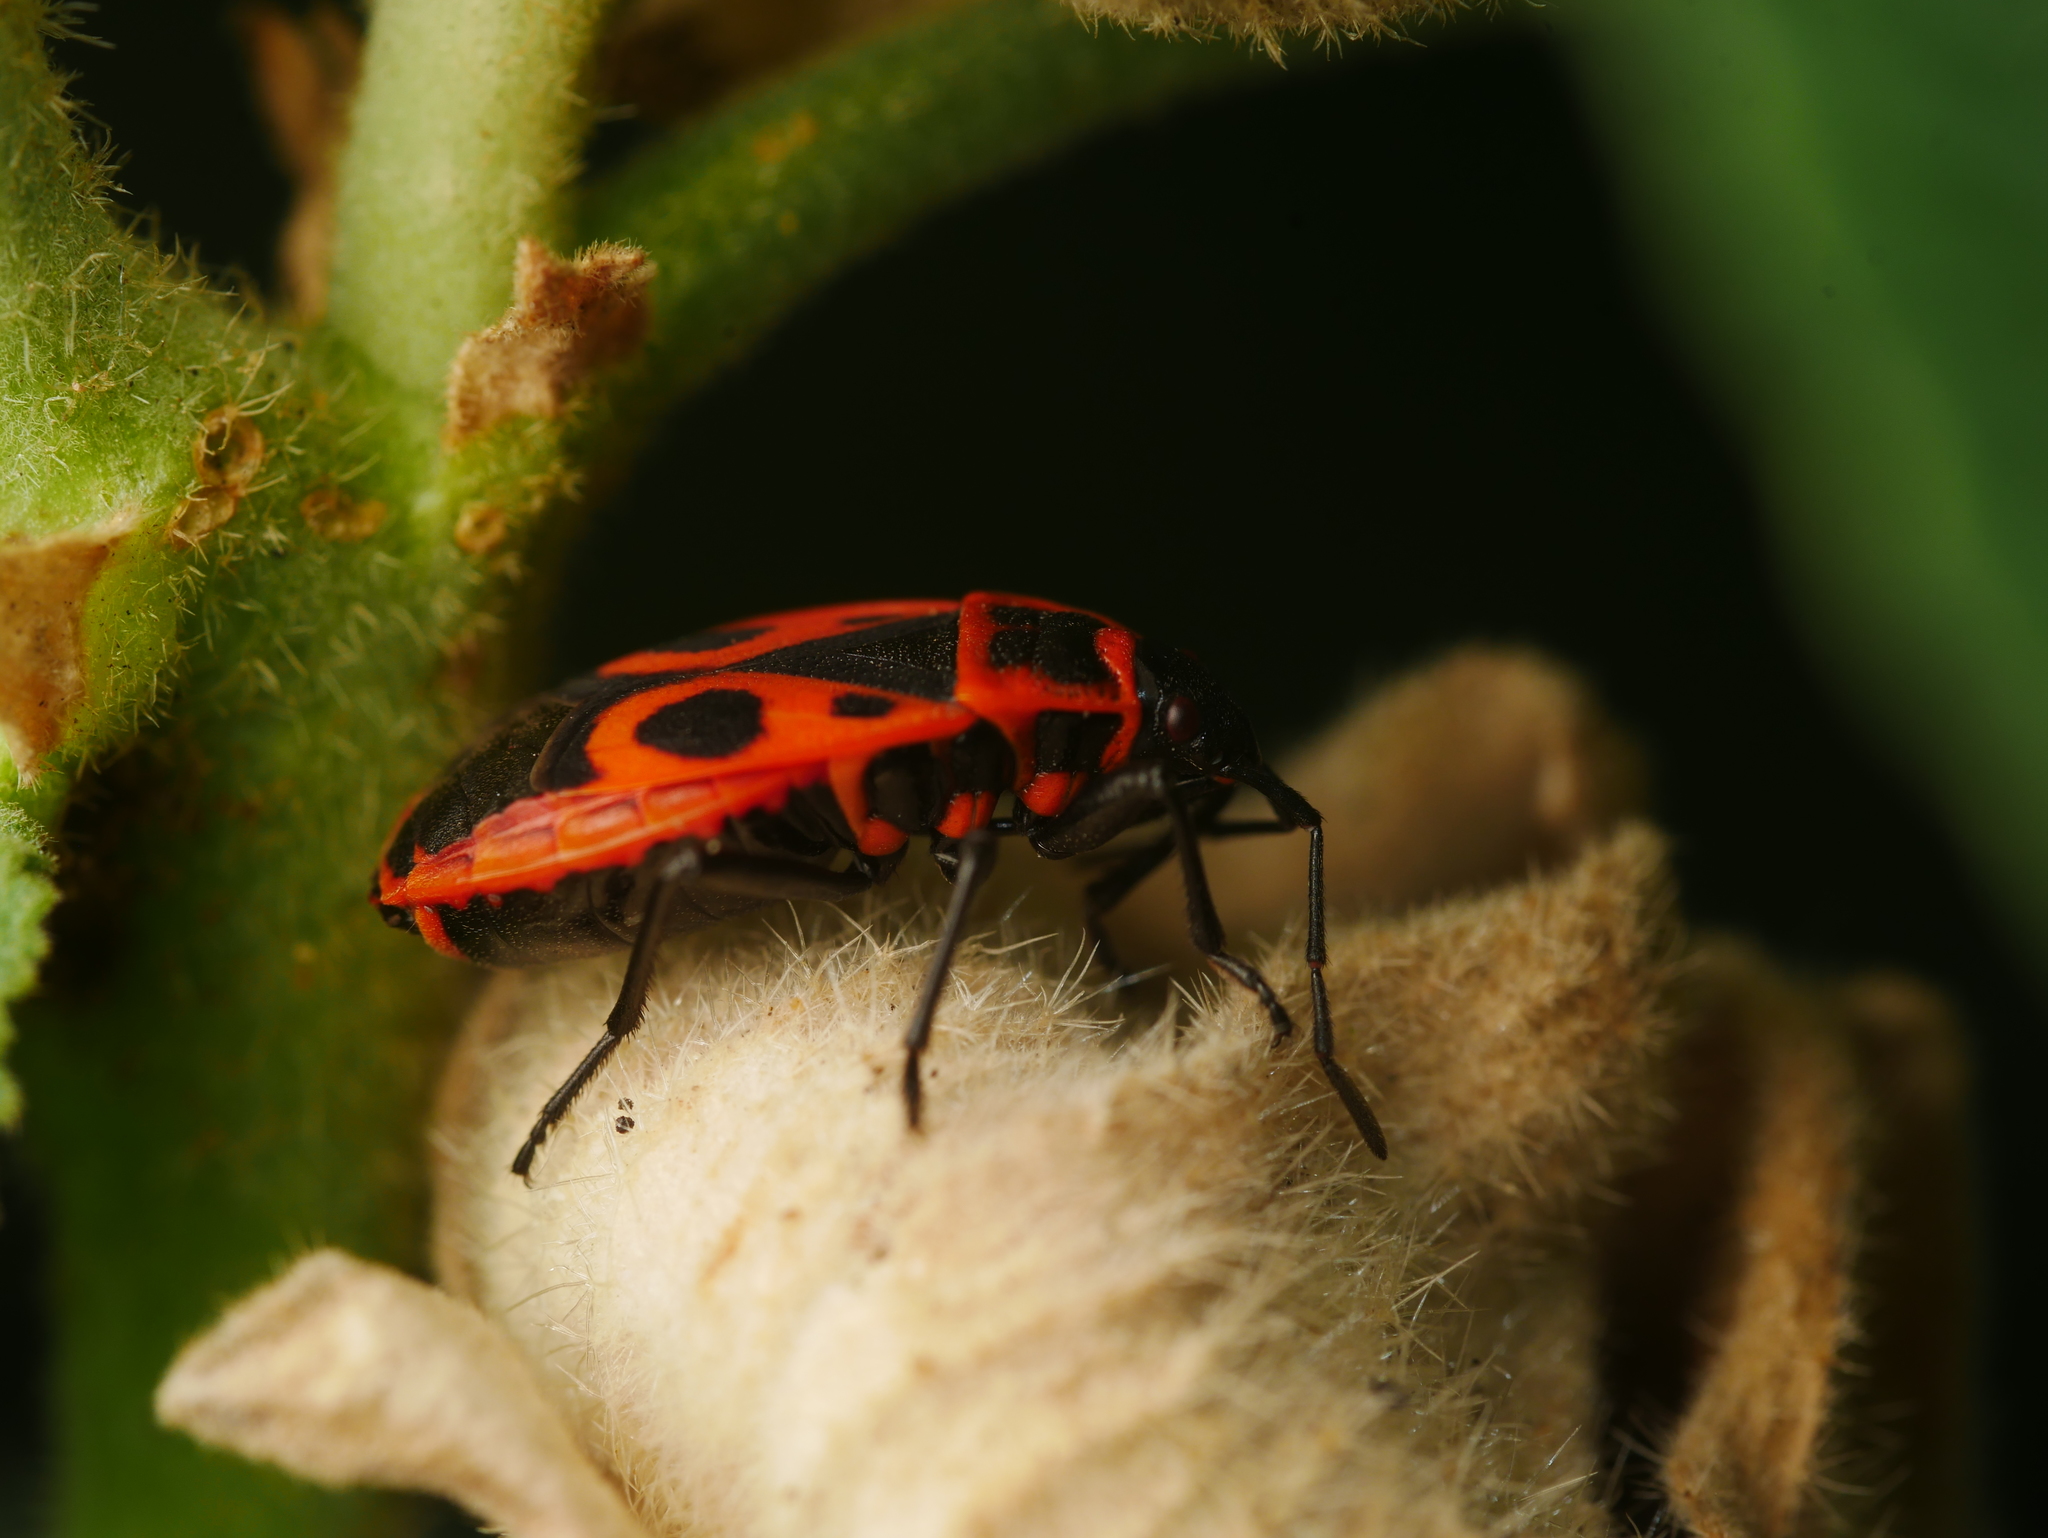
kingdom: Animalia
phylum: Arthropoda
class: Insecta
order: Hemiptera
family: Pyrrhocoridae
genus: Pyrrhocoris
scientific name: Pyrrhocoris apterus
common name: Firebug
